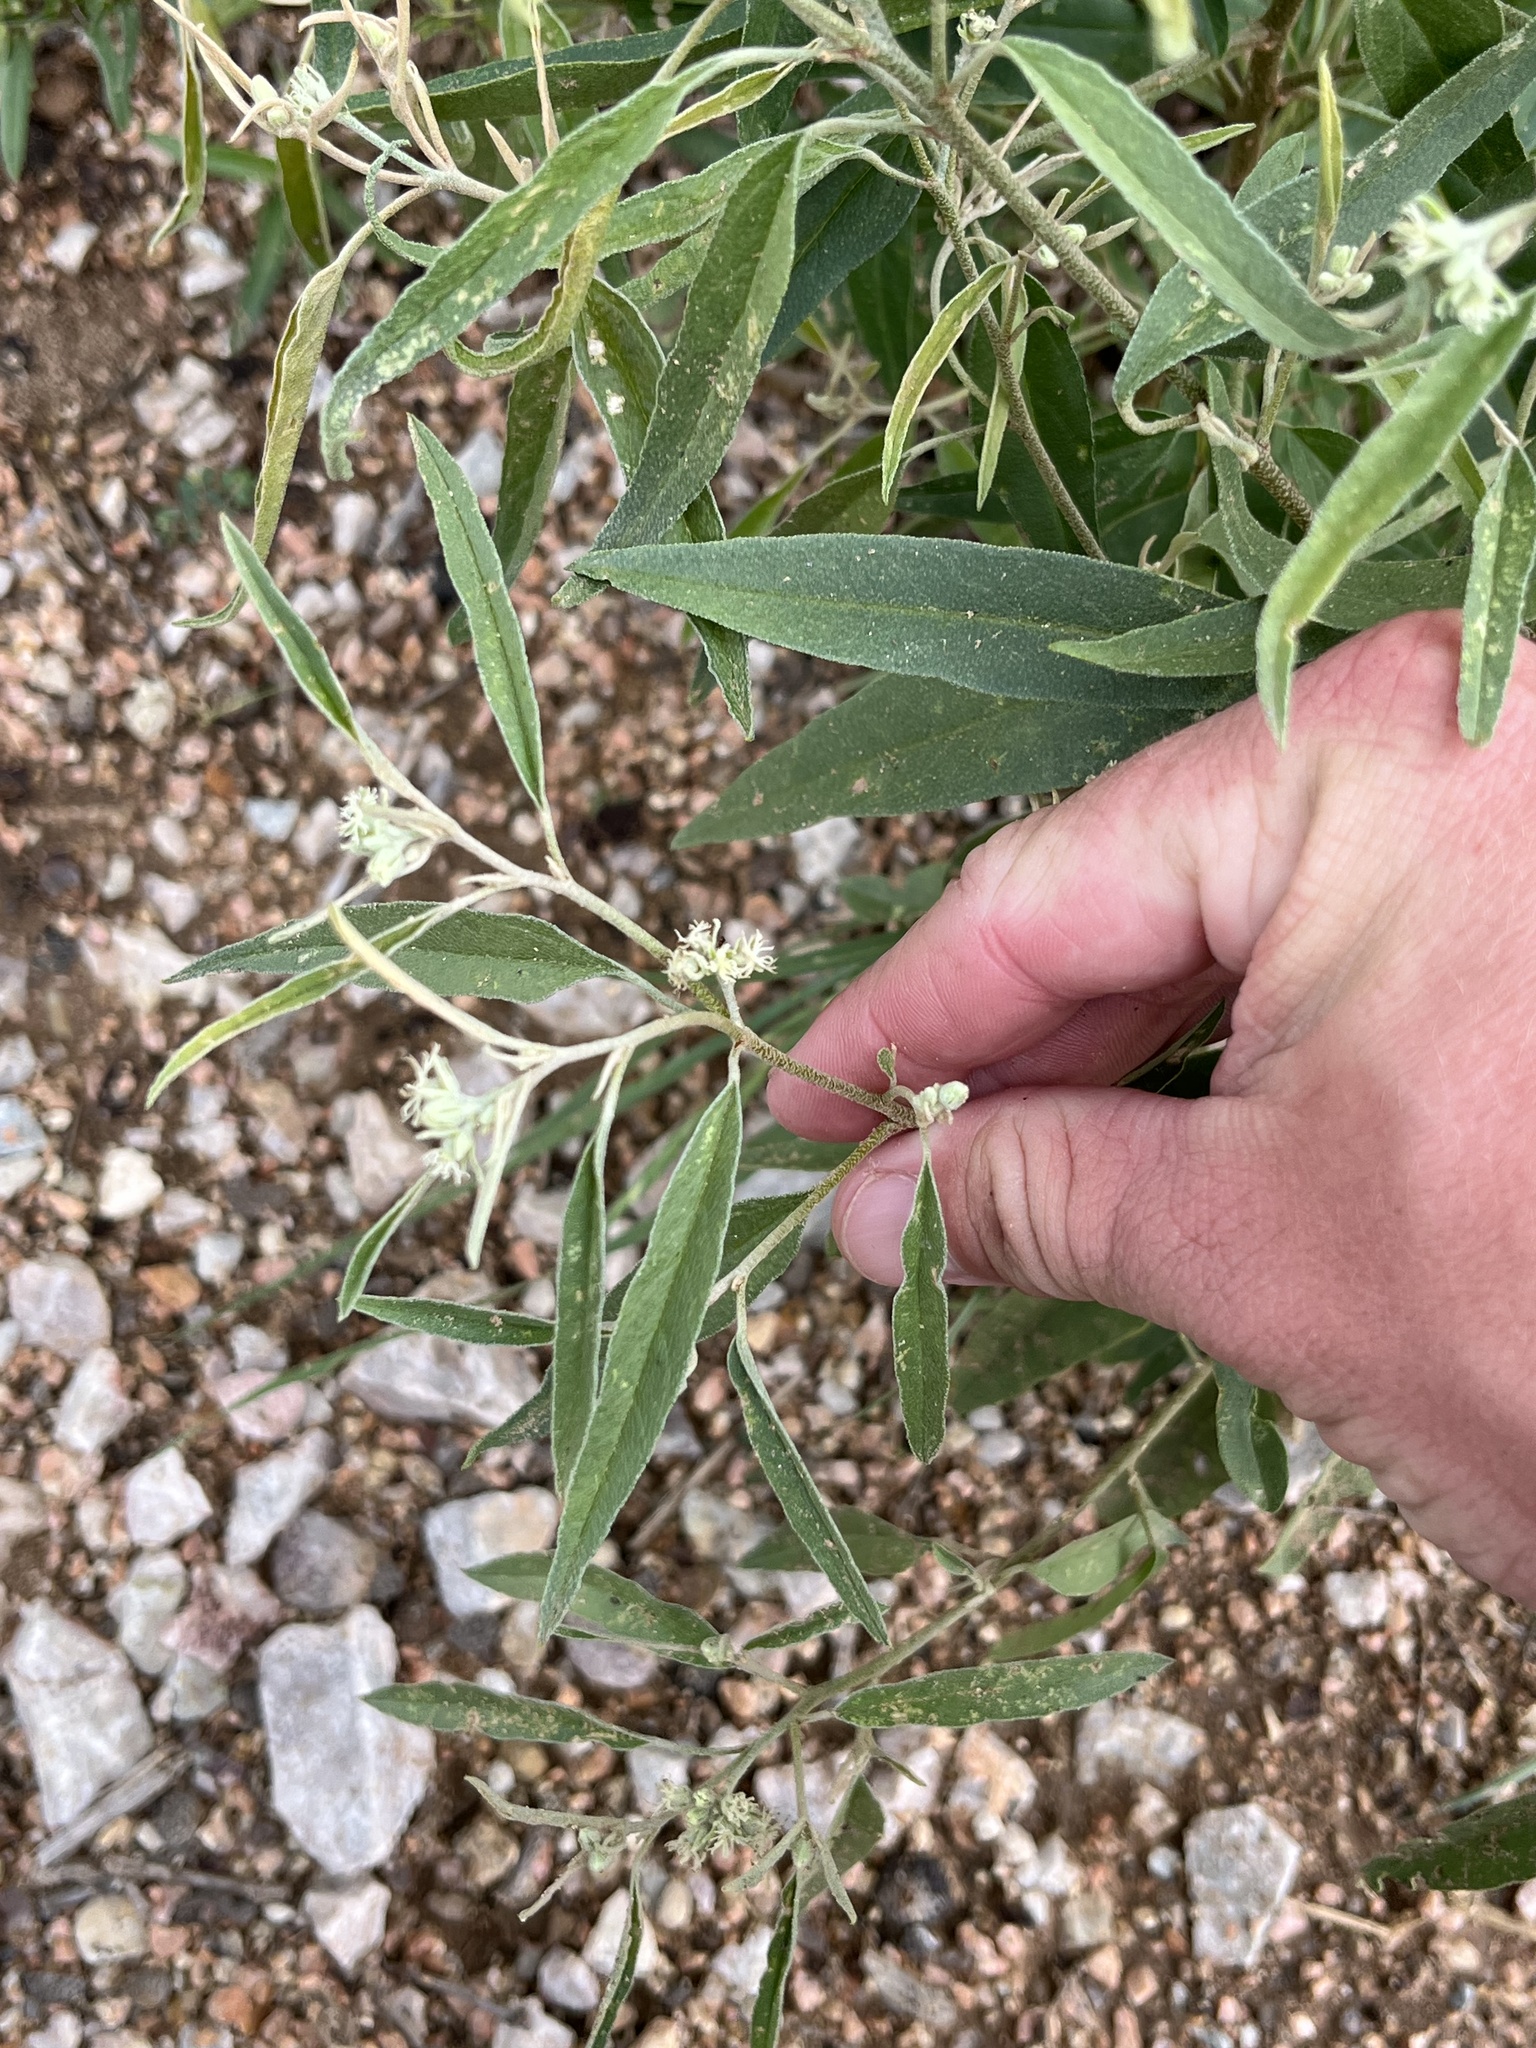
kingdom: Plantae
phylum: Tracheophyta
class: Magnoliopsida
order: Malpighiales
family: Euphorbiaceae
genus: Croton
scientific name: Croton texensis
